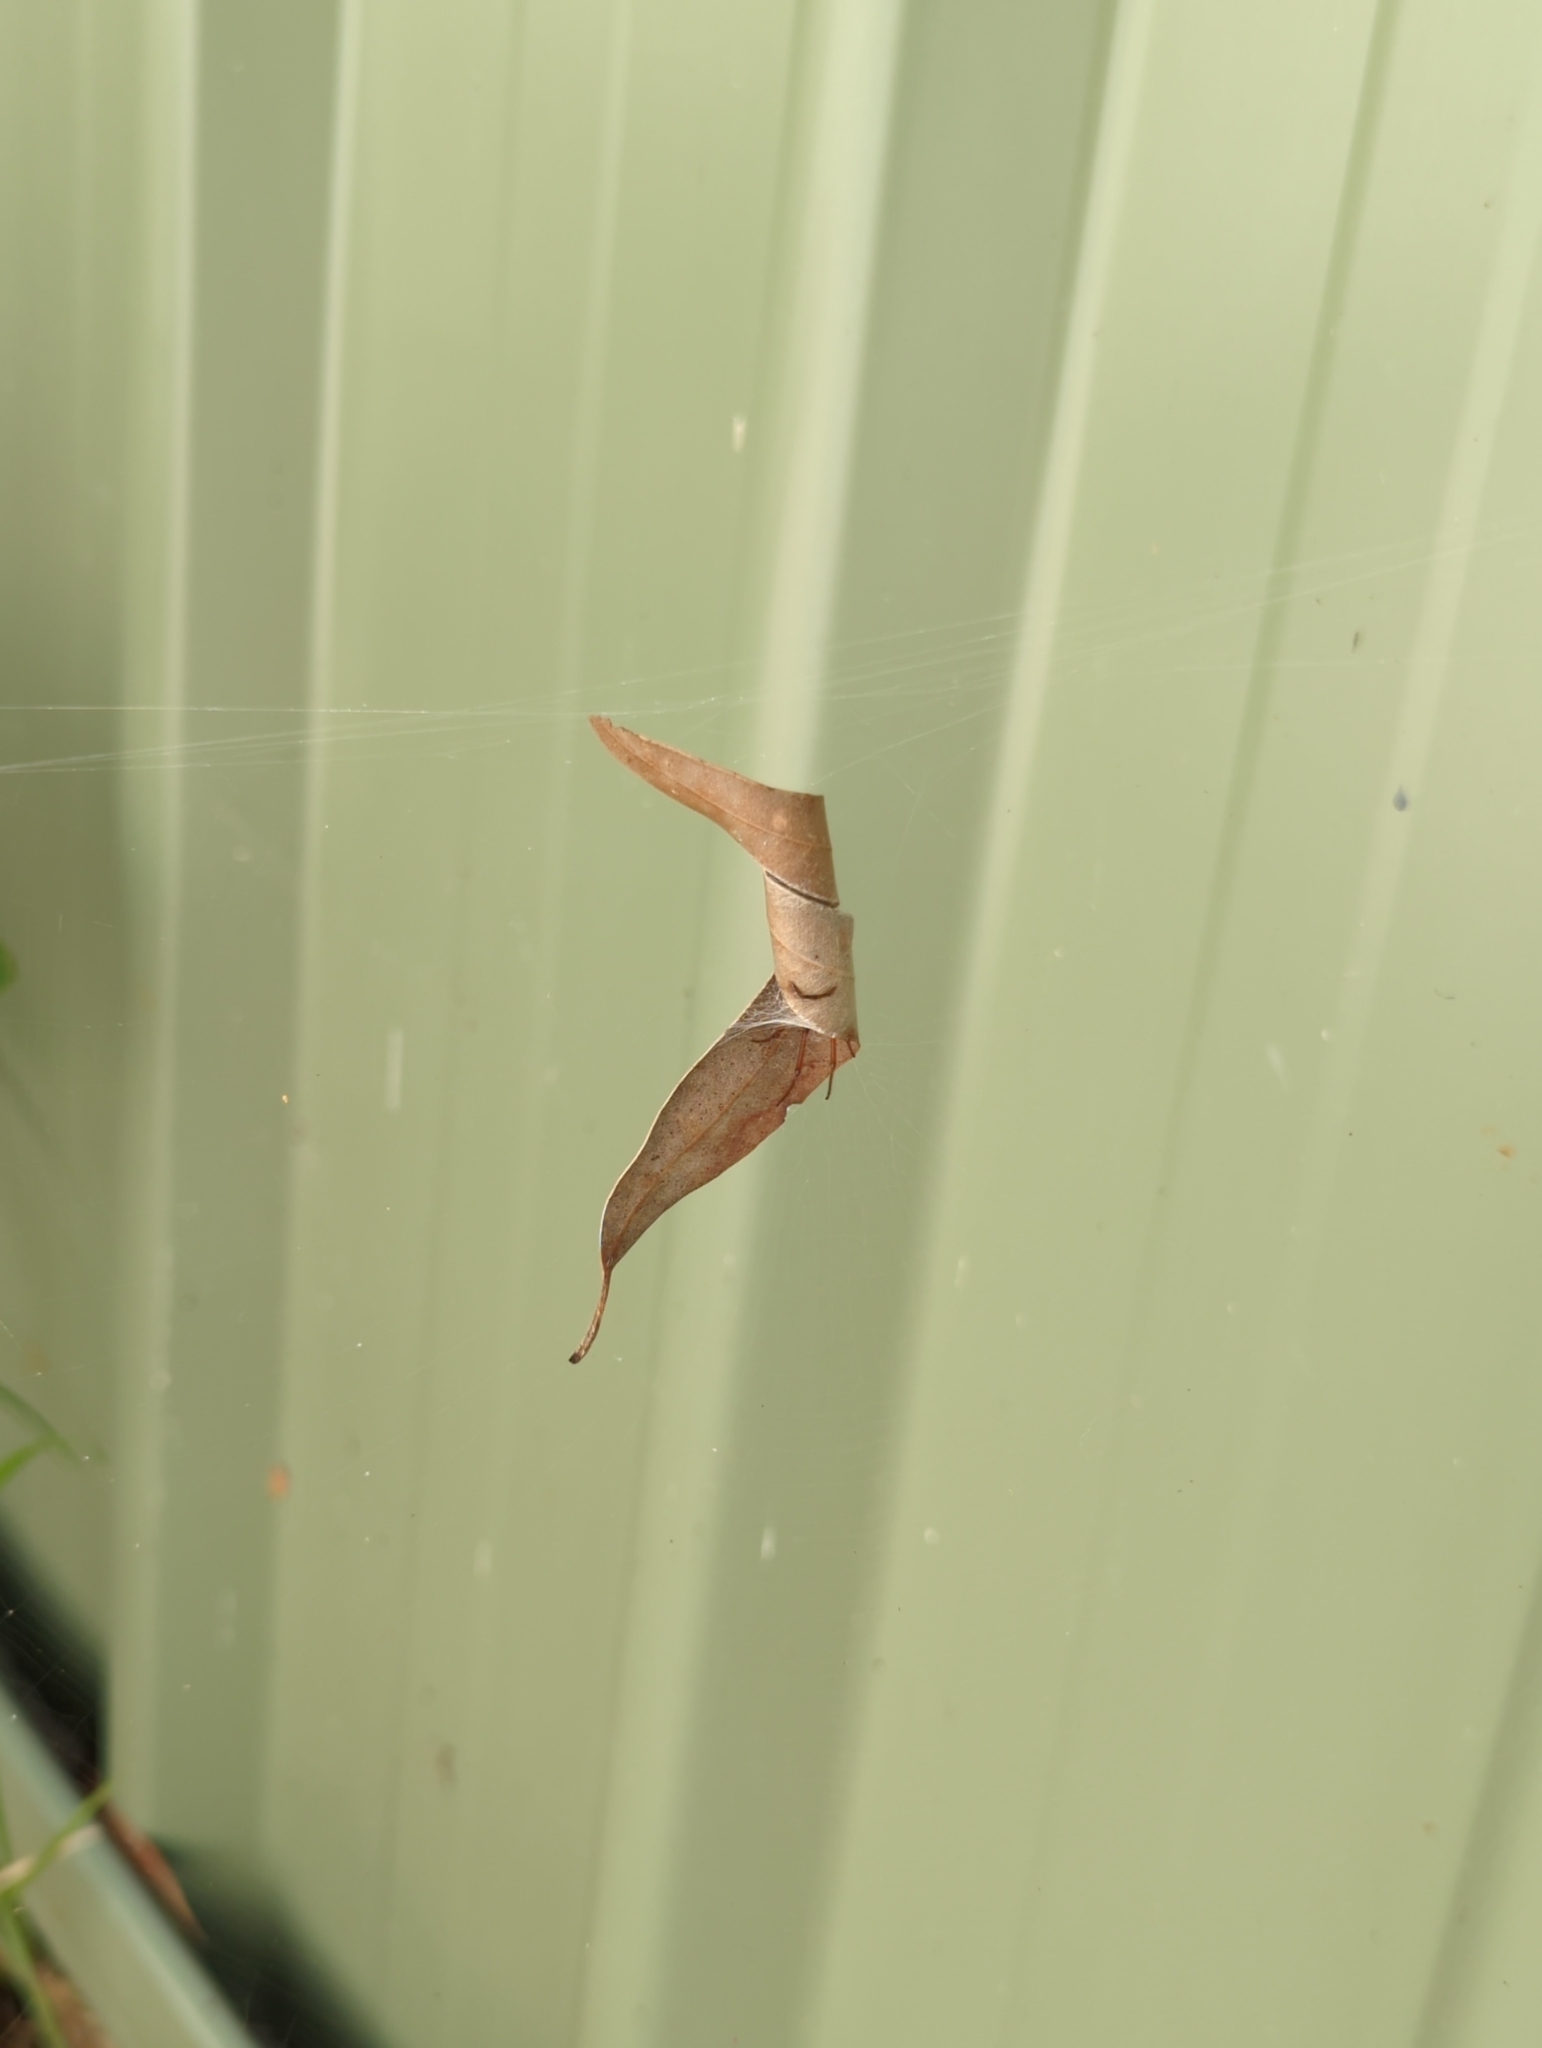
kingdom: Animalia
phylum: Arthropoda
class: Arachnida
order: Araneae
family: Araneidae
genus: Phonognatha
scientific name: Phonognatha graeffei
